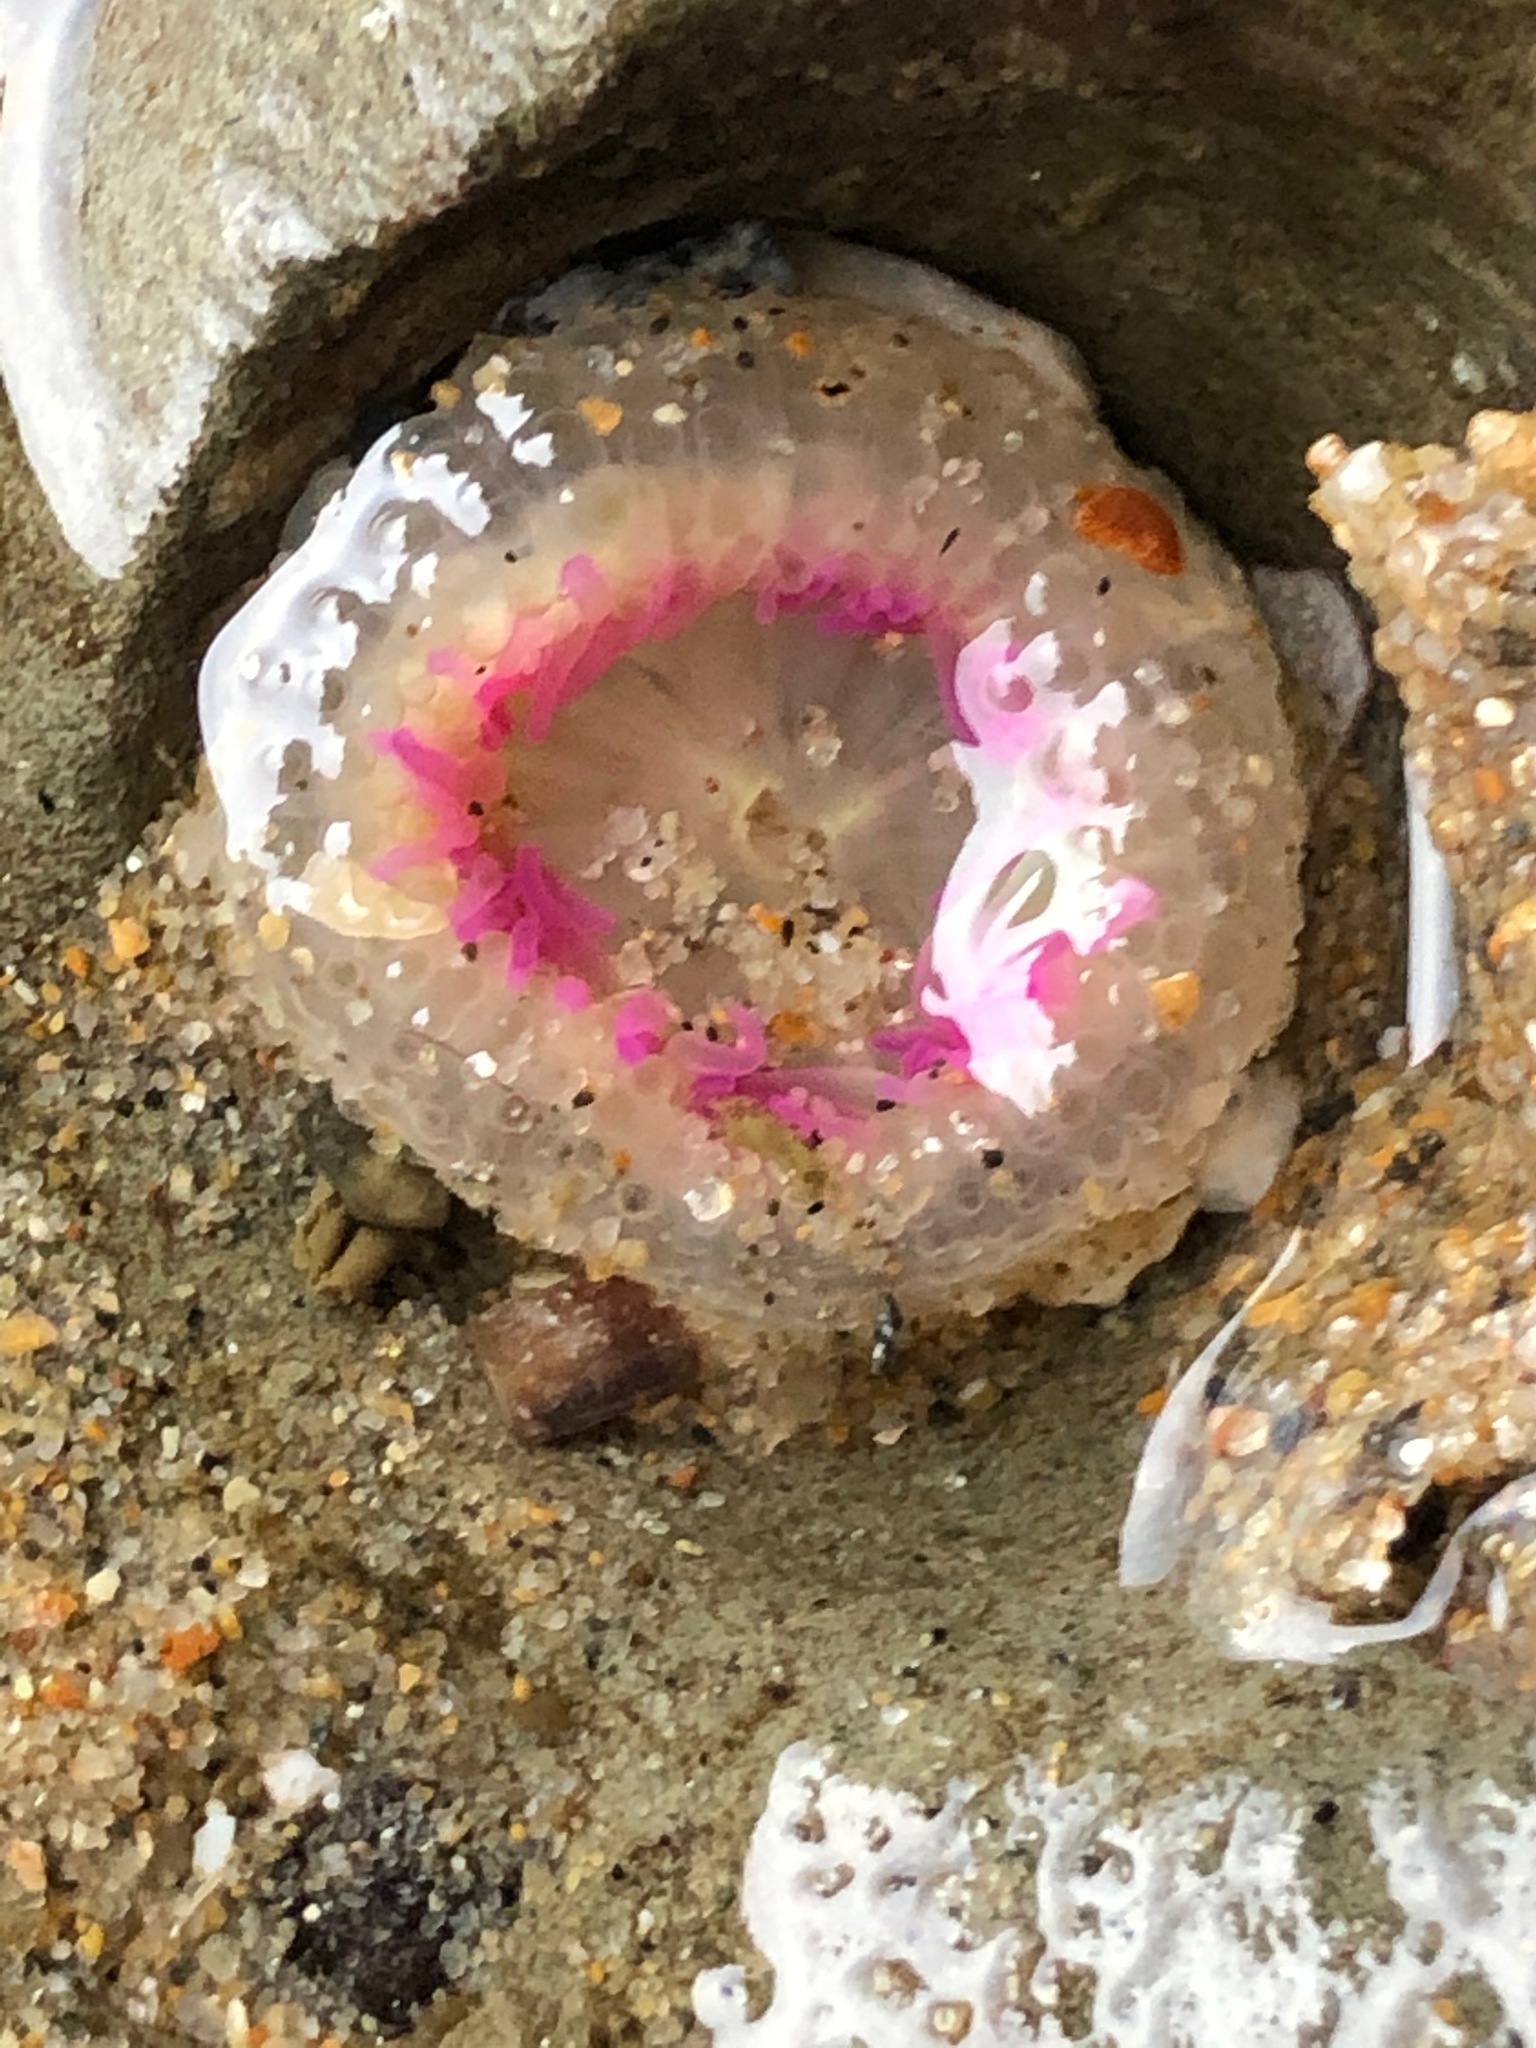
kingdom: Animalia
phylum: Cnidaria
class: Anthozoa
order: Actiniaria
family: Actiniidae
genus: Anthopleura
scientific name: Anthopleura elegantissima
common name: Clonal anemone
